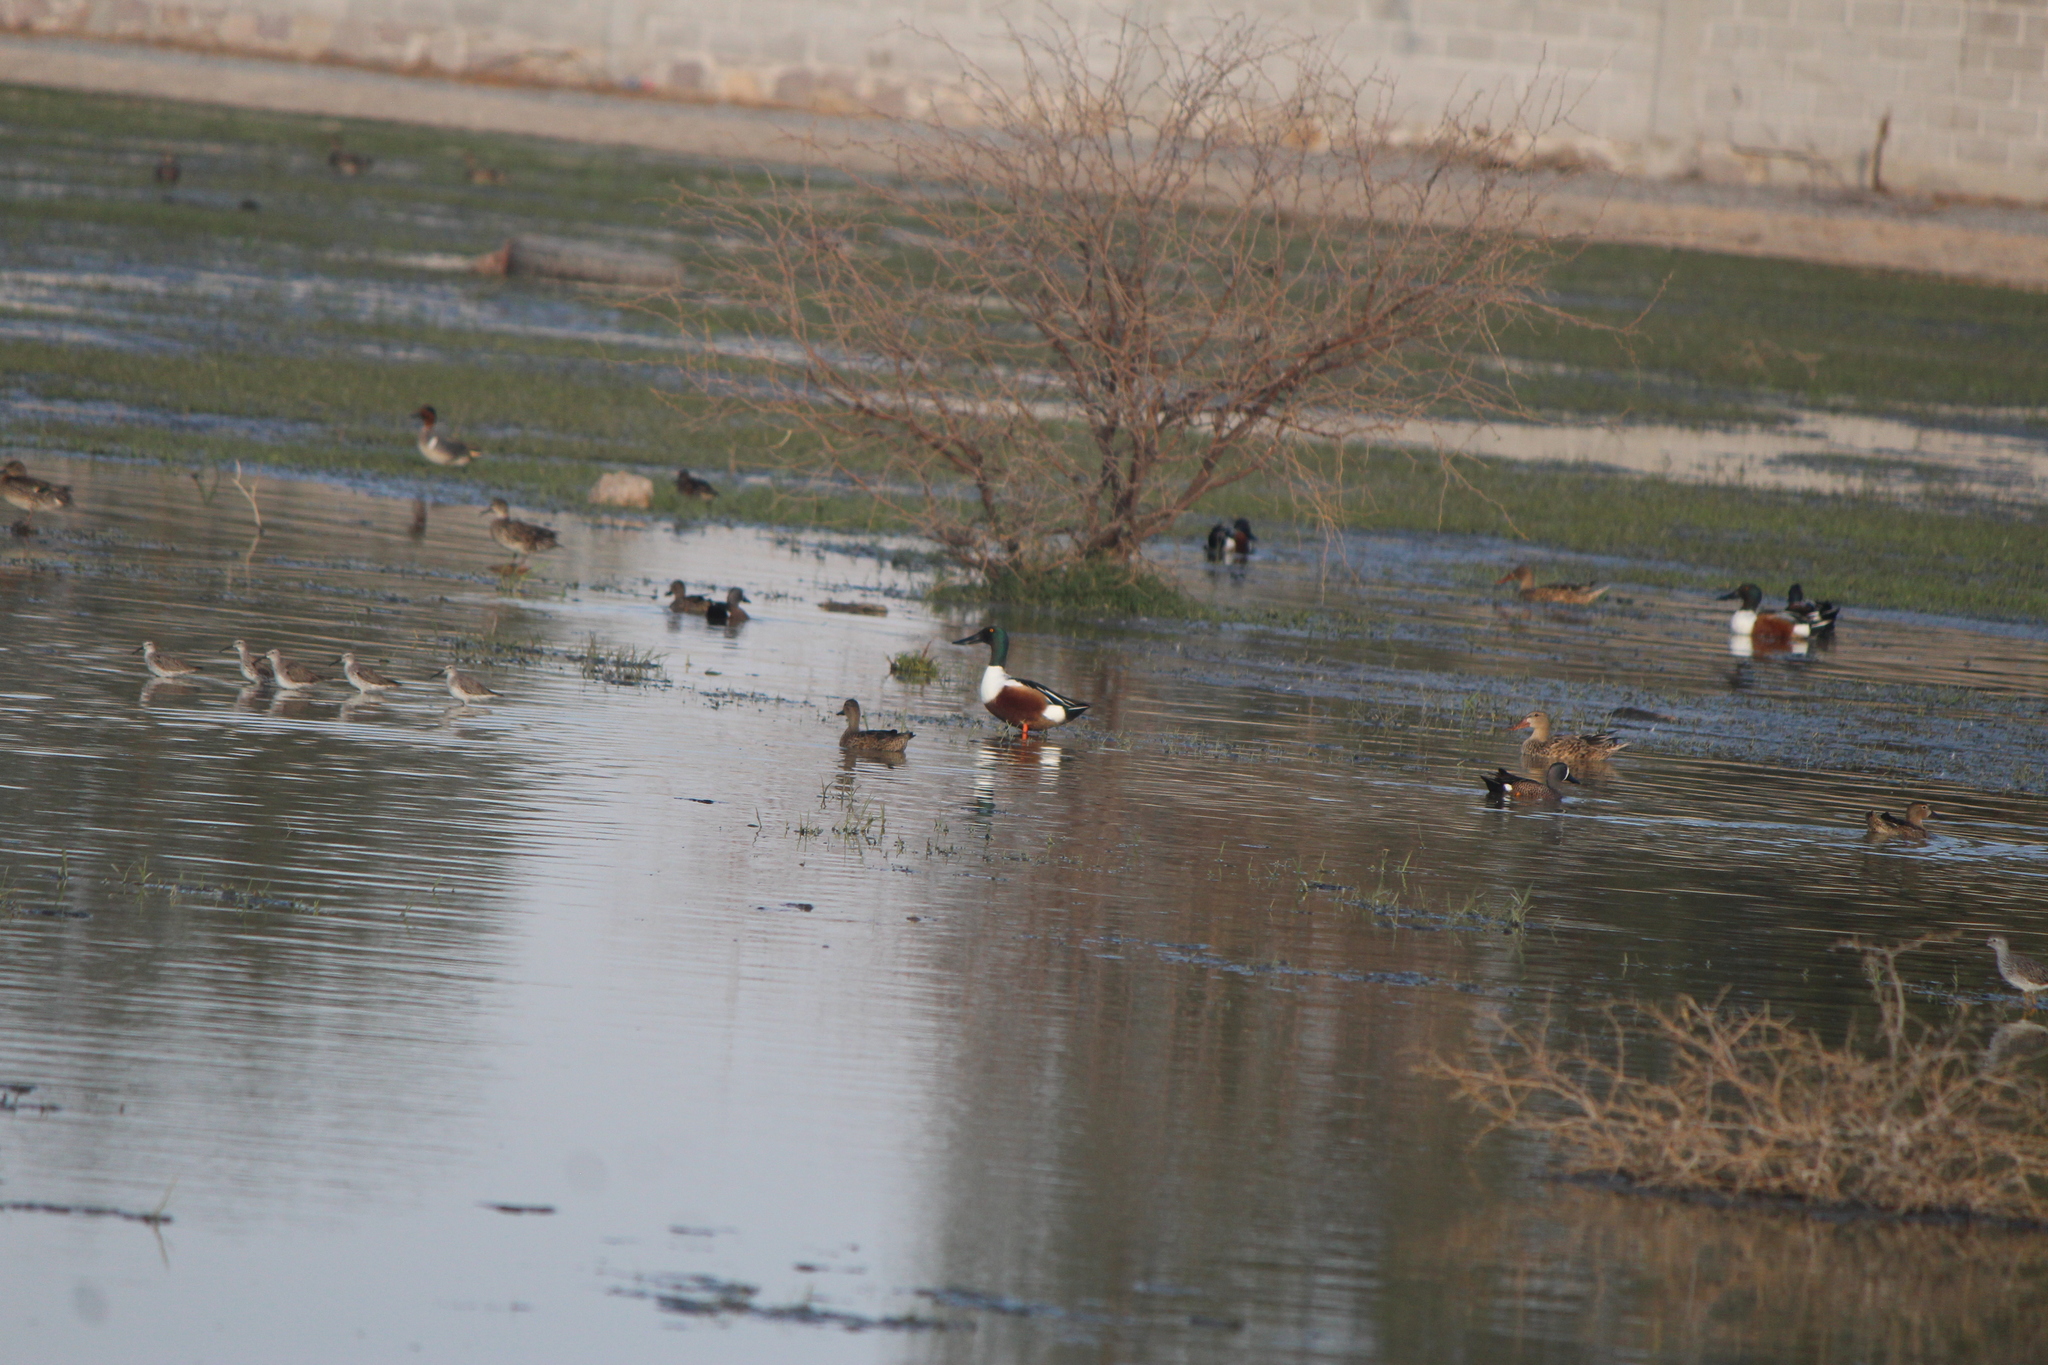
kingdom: Animalia
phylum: Chordata
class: Aves
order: Anseriformes
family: Anatidae
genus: Spatula
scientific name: Spatula clypeata
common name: Northern shoveler
